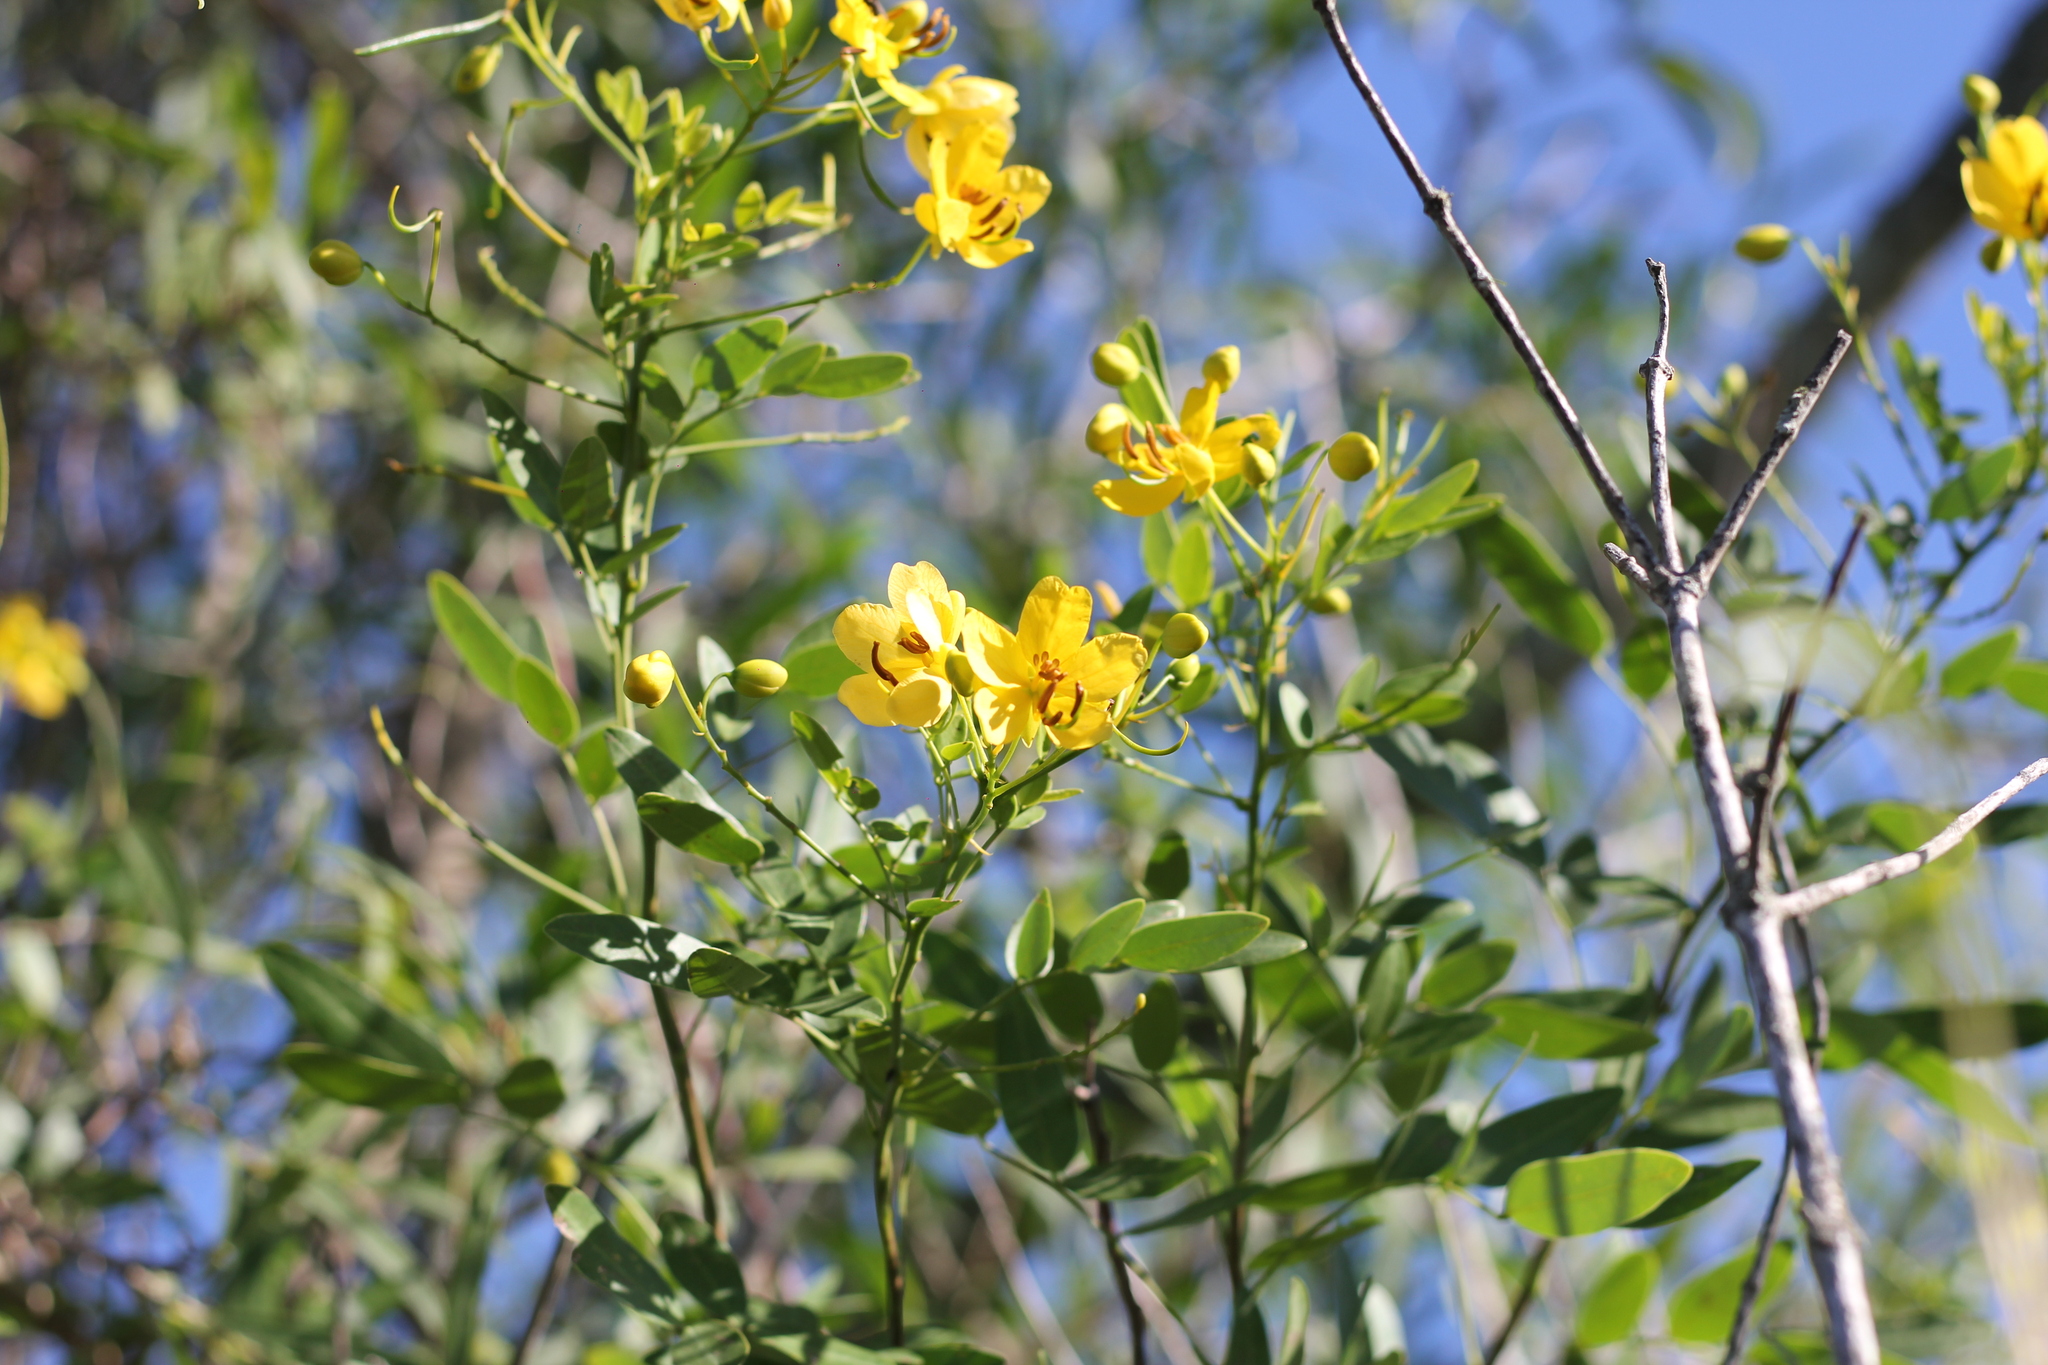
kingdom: Plantae
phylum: Tracheophyta
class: Magnoliopsida
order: Fabales
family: Fabaceae
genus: Senna
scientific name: Senna corymbosa
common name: Argentine senna
